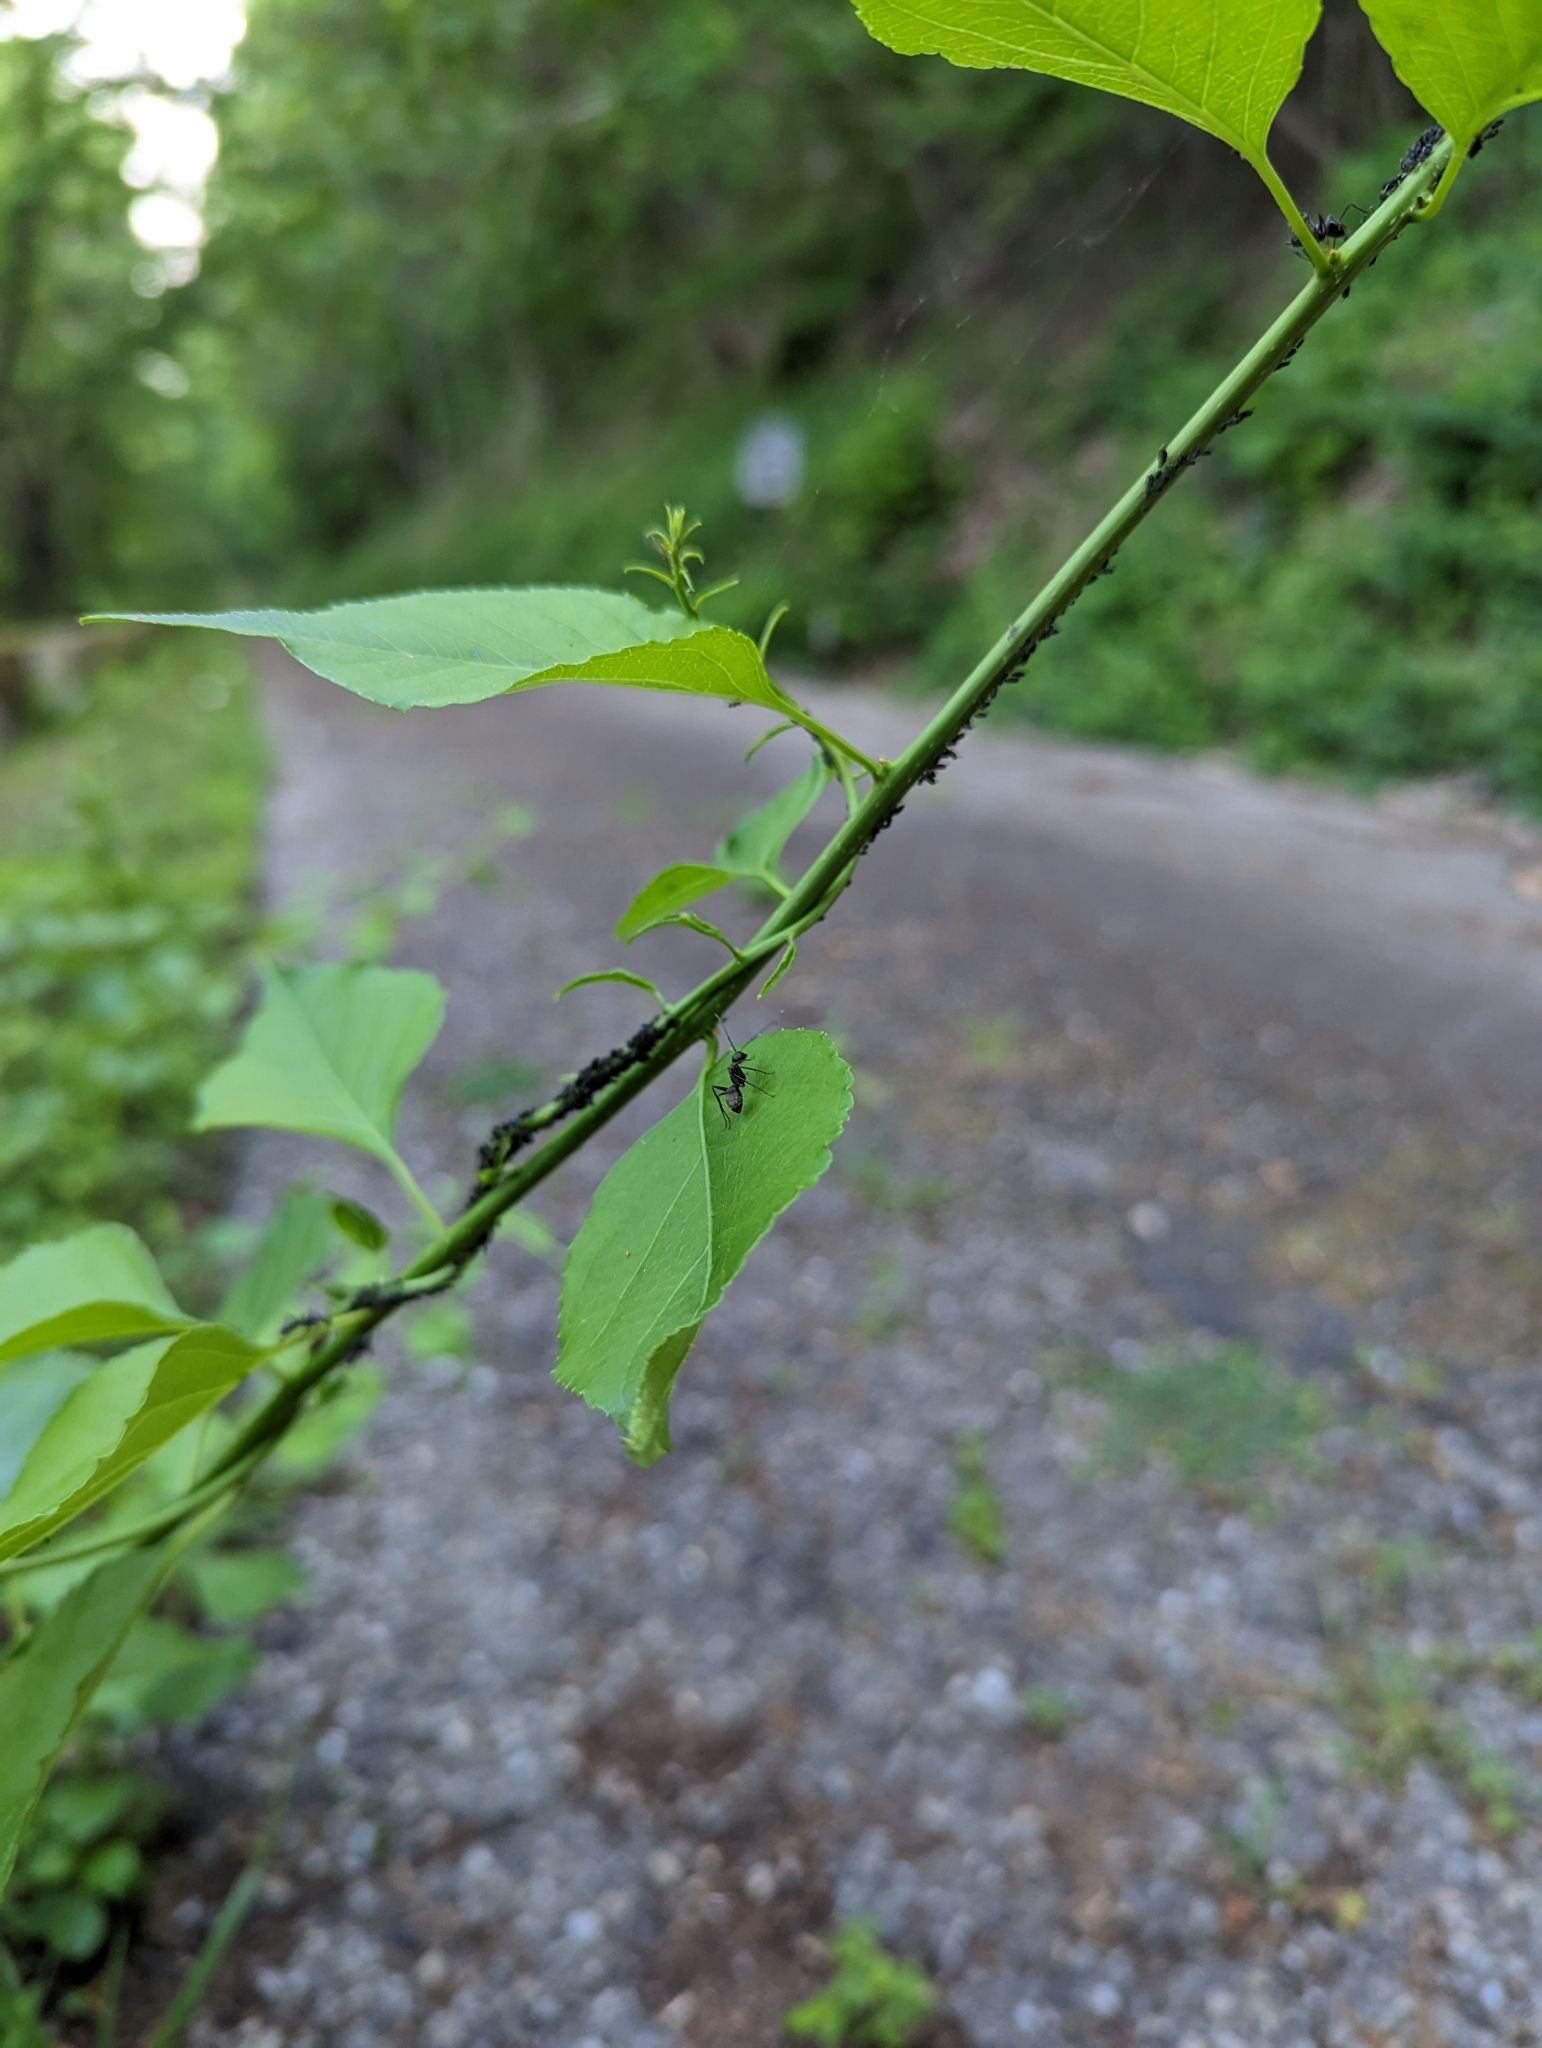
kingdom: Animalia
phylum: Arthropoda
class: Insecta
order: Hymenoptera
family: Formicidae
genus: Camponotus
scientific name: Camponotus pennsylvanicus
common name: Black carpenter ant
